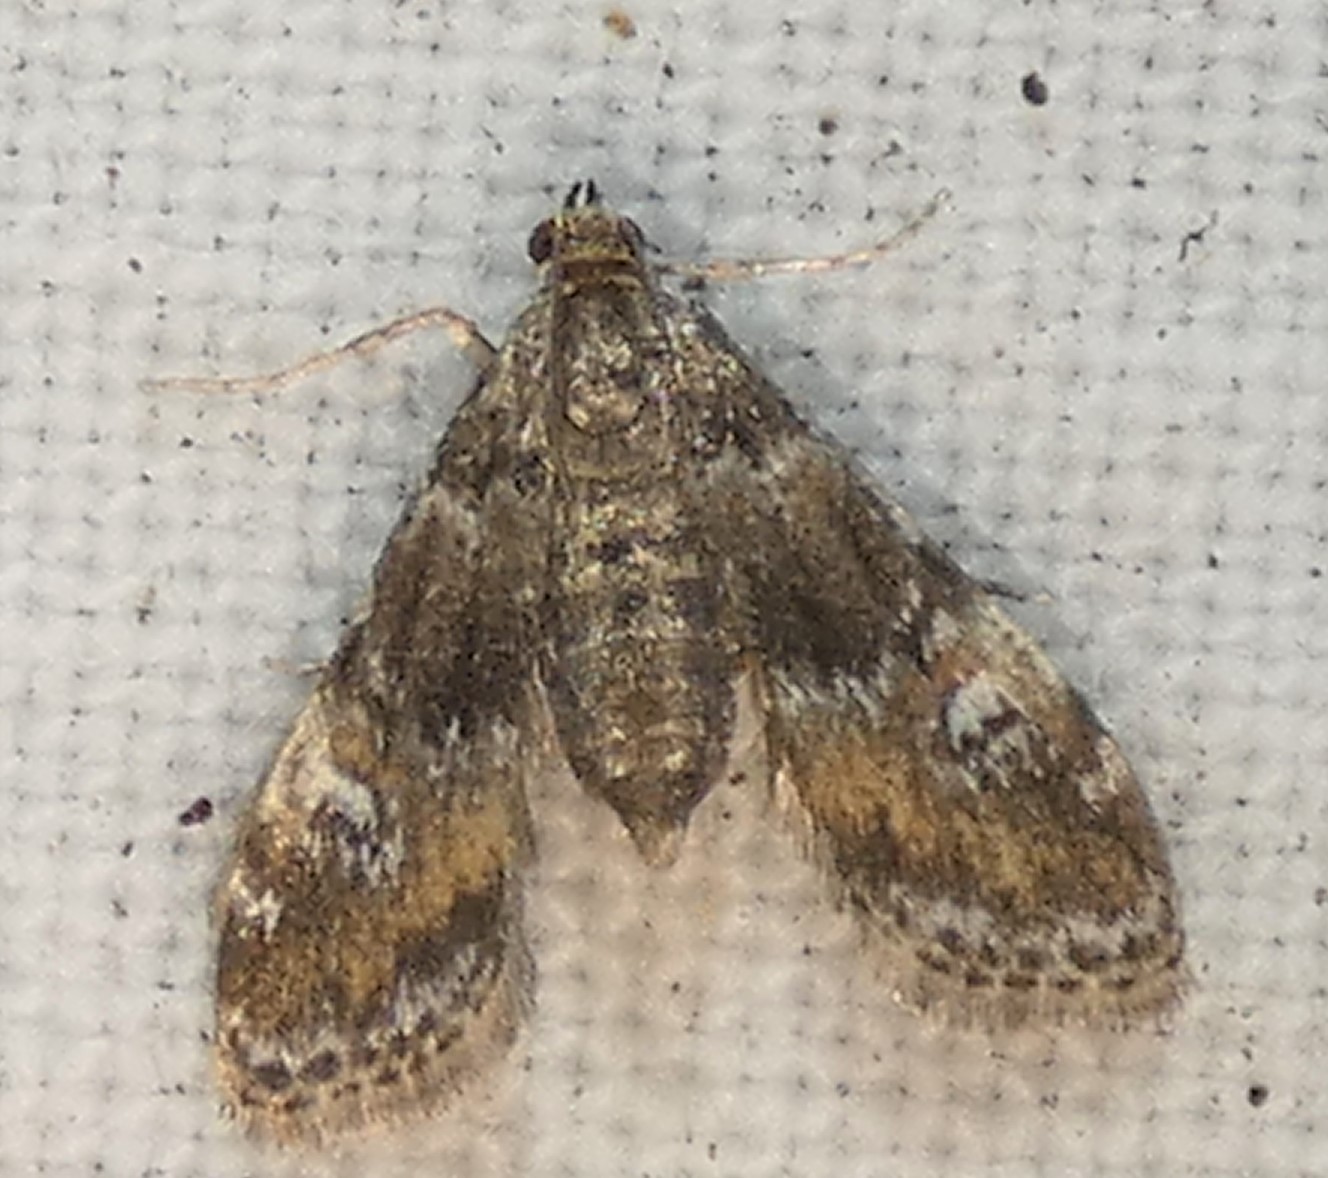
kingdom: Animalia
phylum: Arthropoda
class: Insecta
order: Lepidoptera
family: Crambidae
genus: Elophila
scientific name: Elophila obliteralis
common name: Waterlily leafcutter moth
